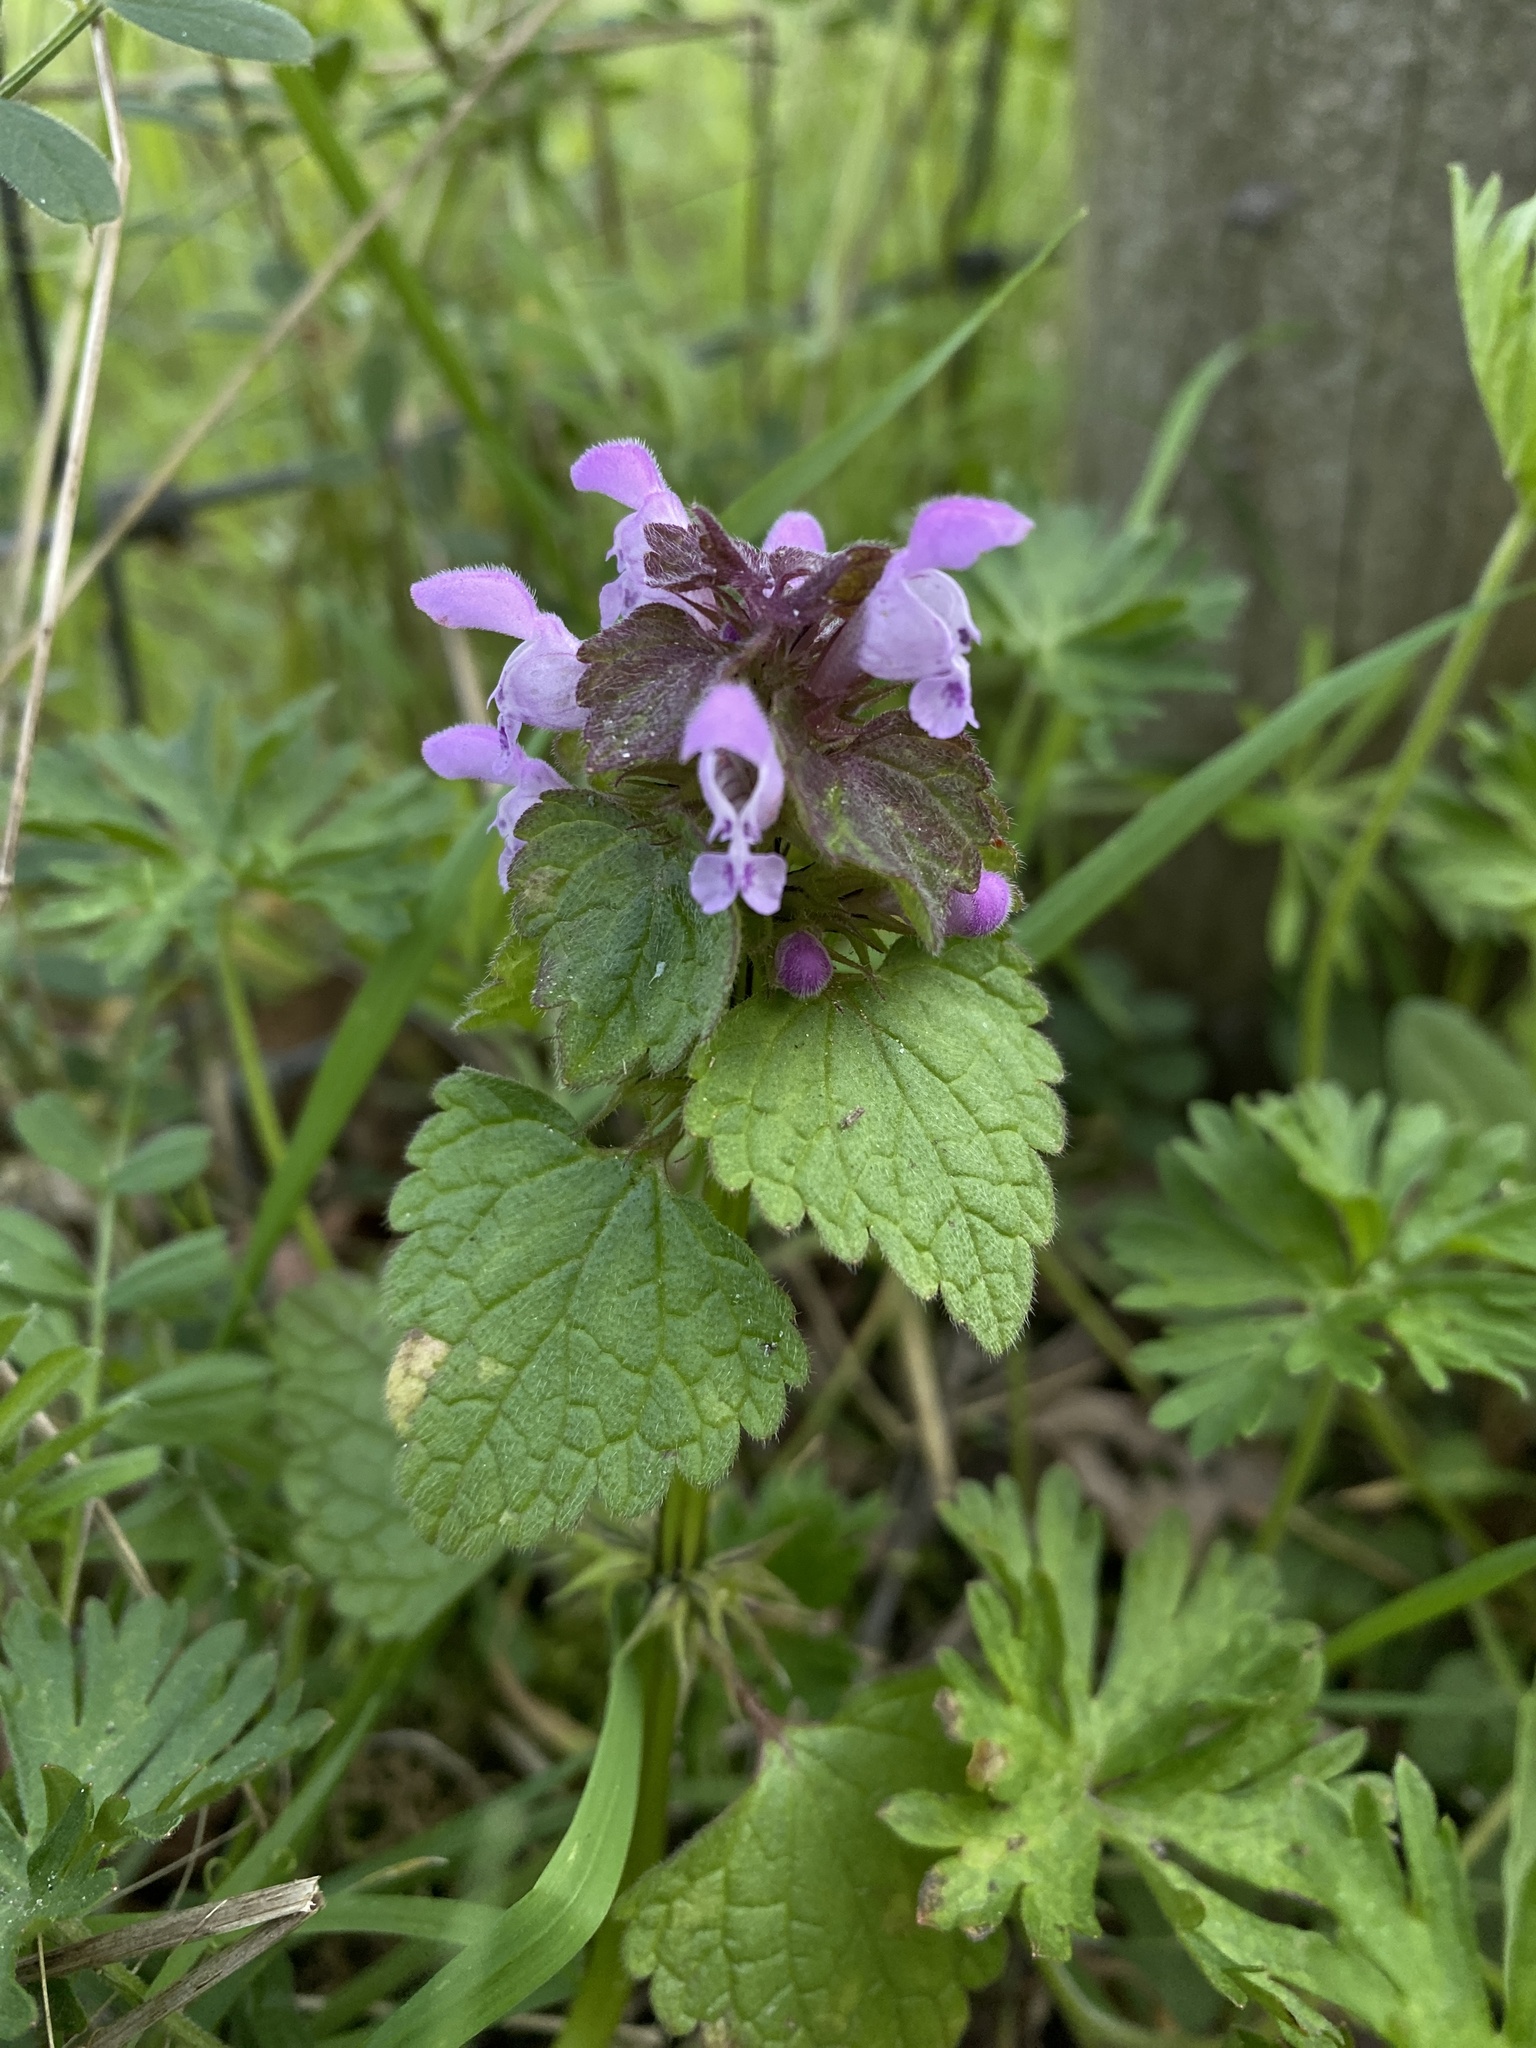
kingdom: Plantae
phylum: Tracheophyta
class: Magnoliopsida
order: Lamiales
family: Lamiaceae
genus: Lamium
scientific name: Lamium purpureum
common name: Red dead-nettle
